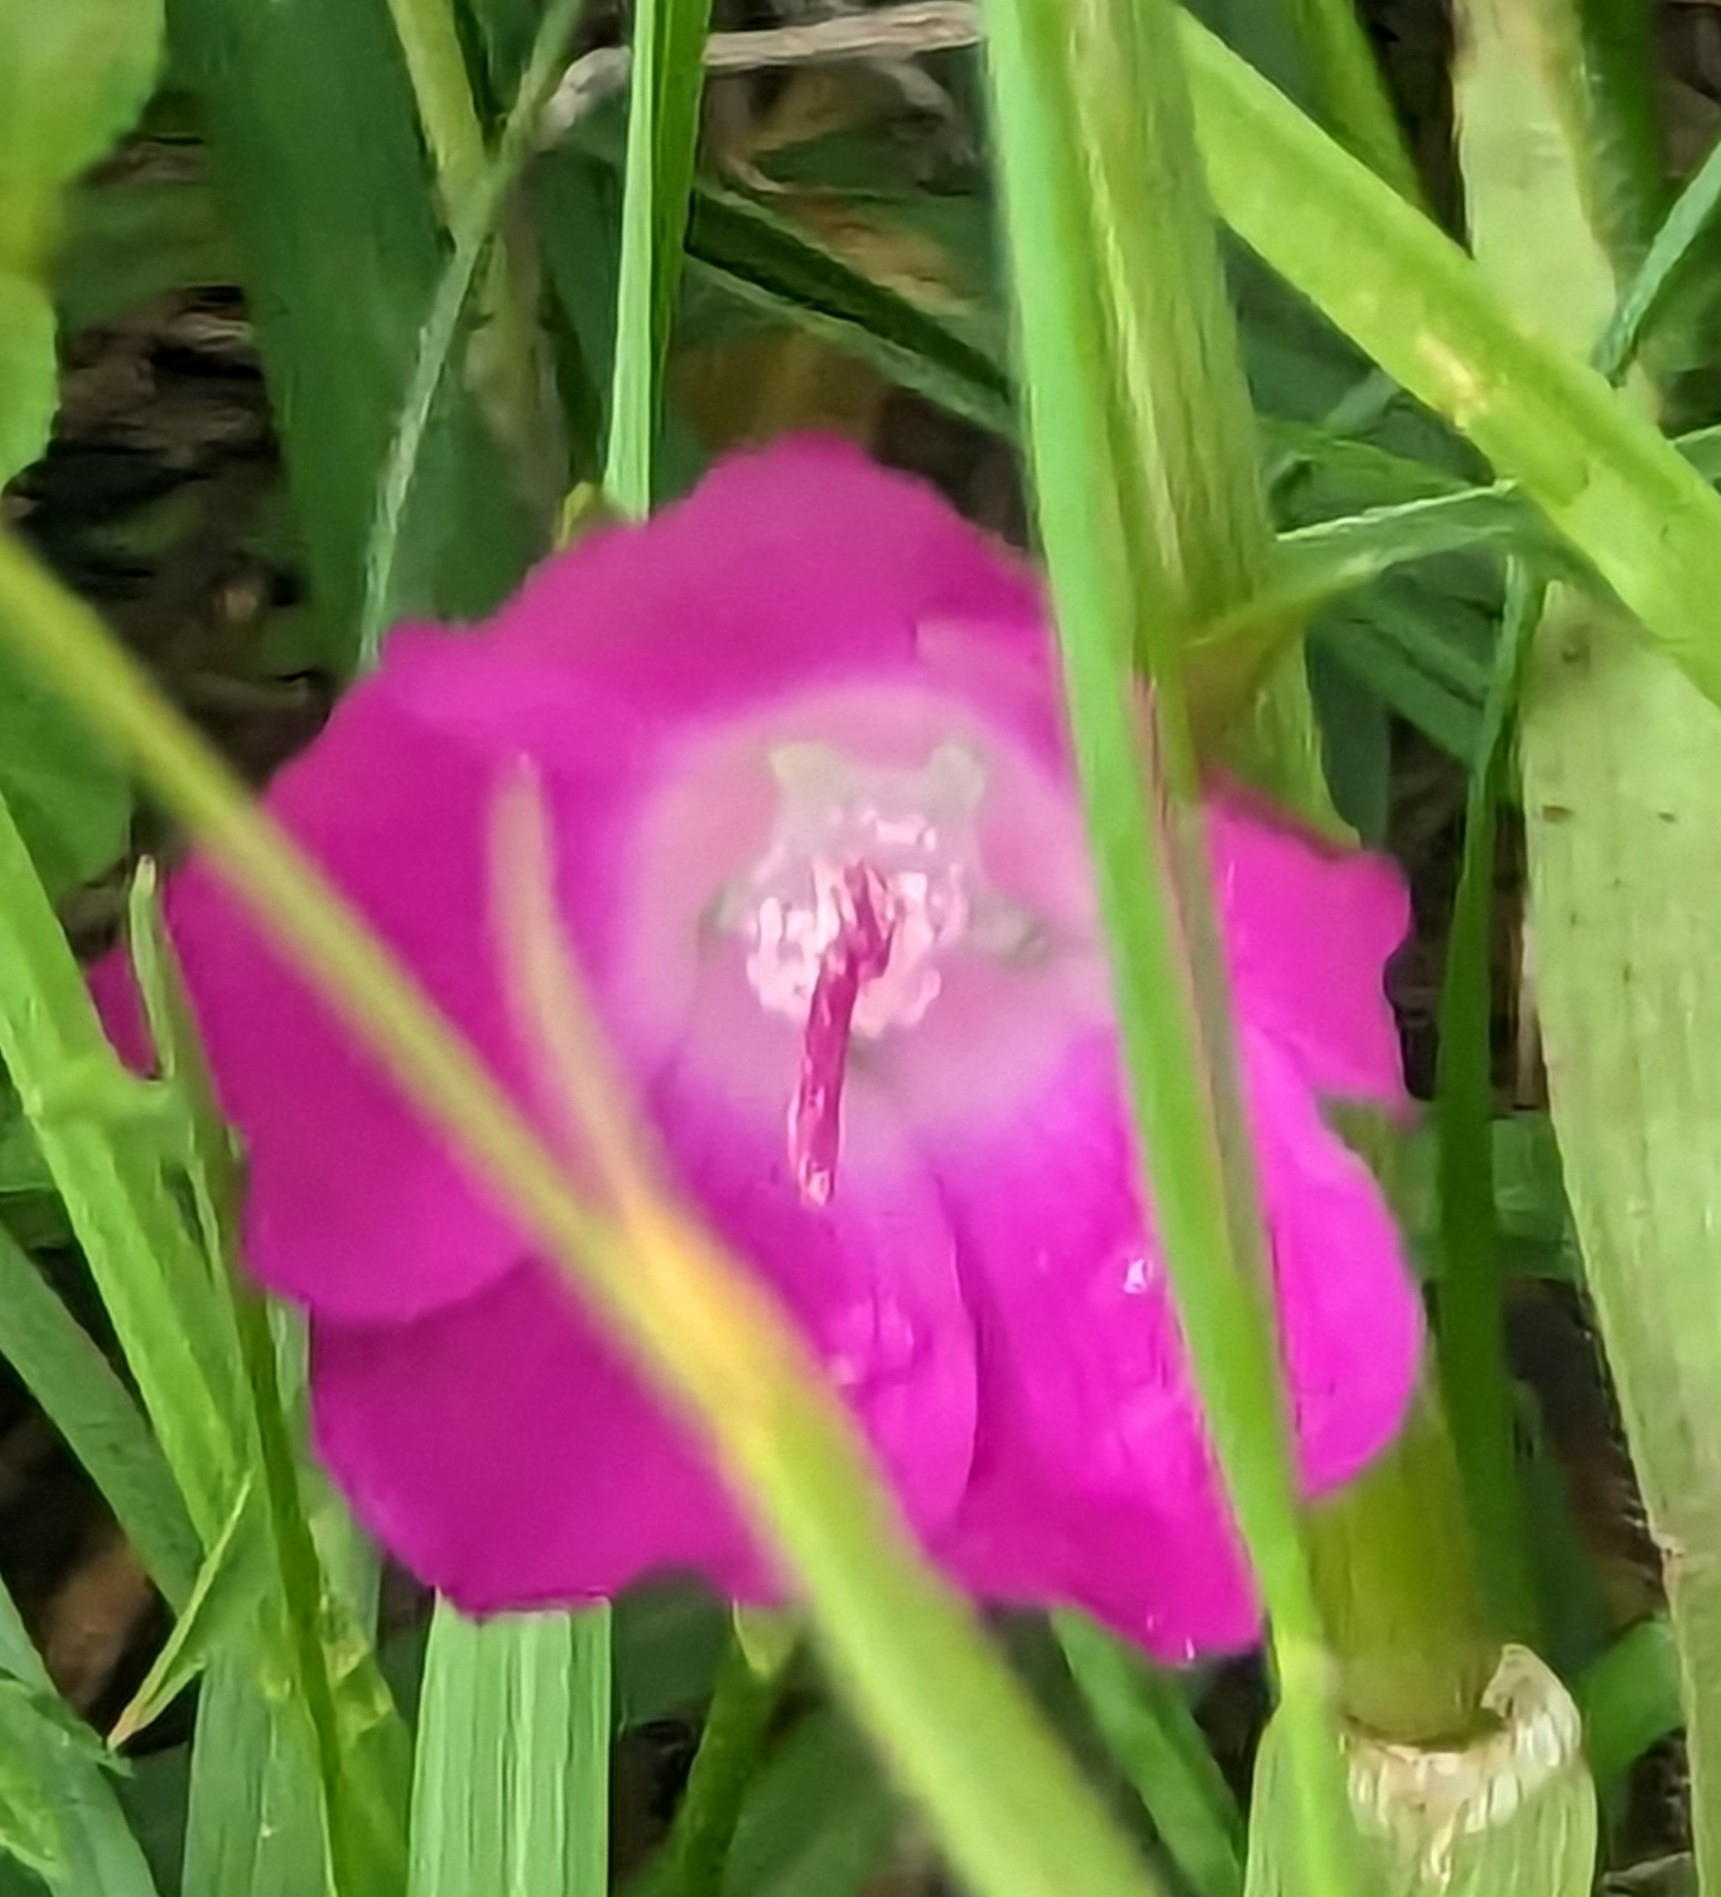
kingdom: Plantae
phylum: Tracheophyta
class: Magnoliopsida
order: Malvales
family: Malvaceae
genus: Callirhoe
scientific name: Callirhoe involucrata
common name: Purple poppy-mallow
